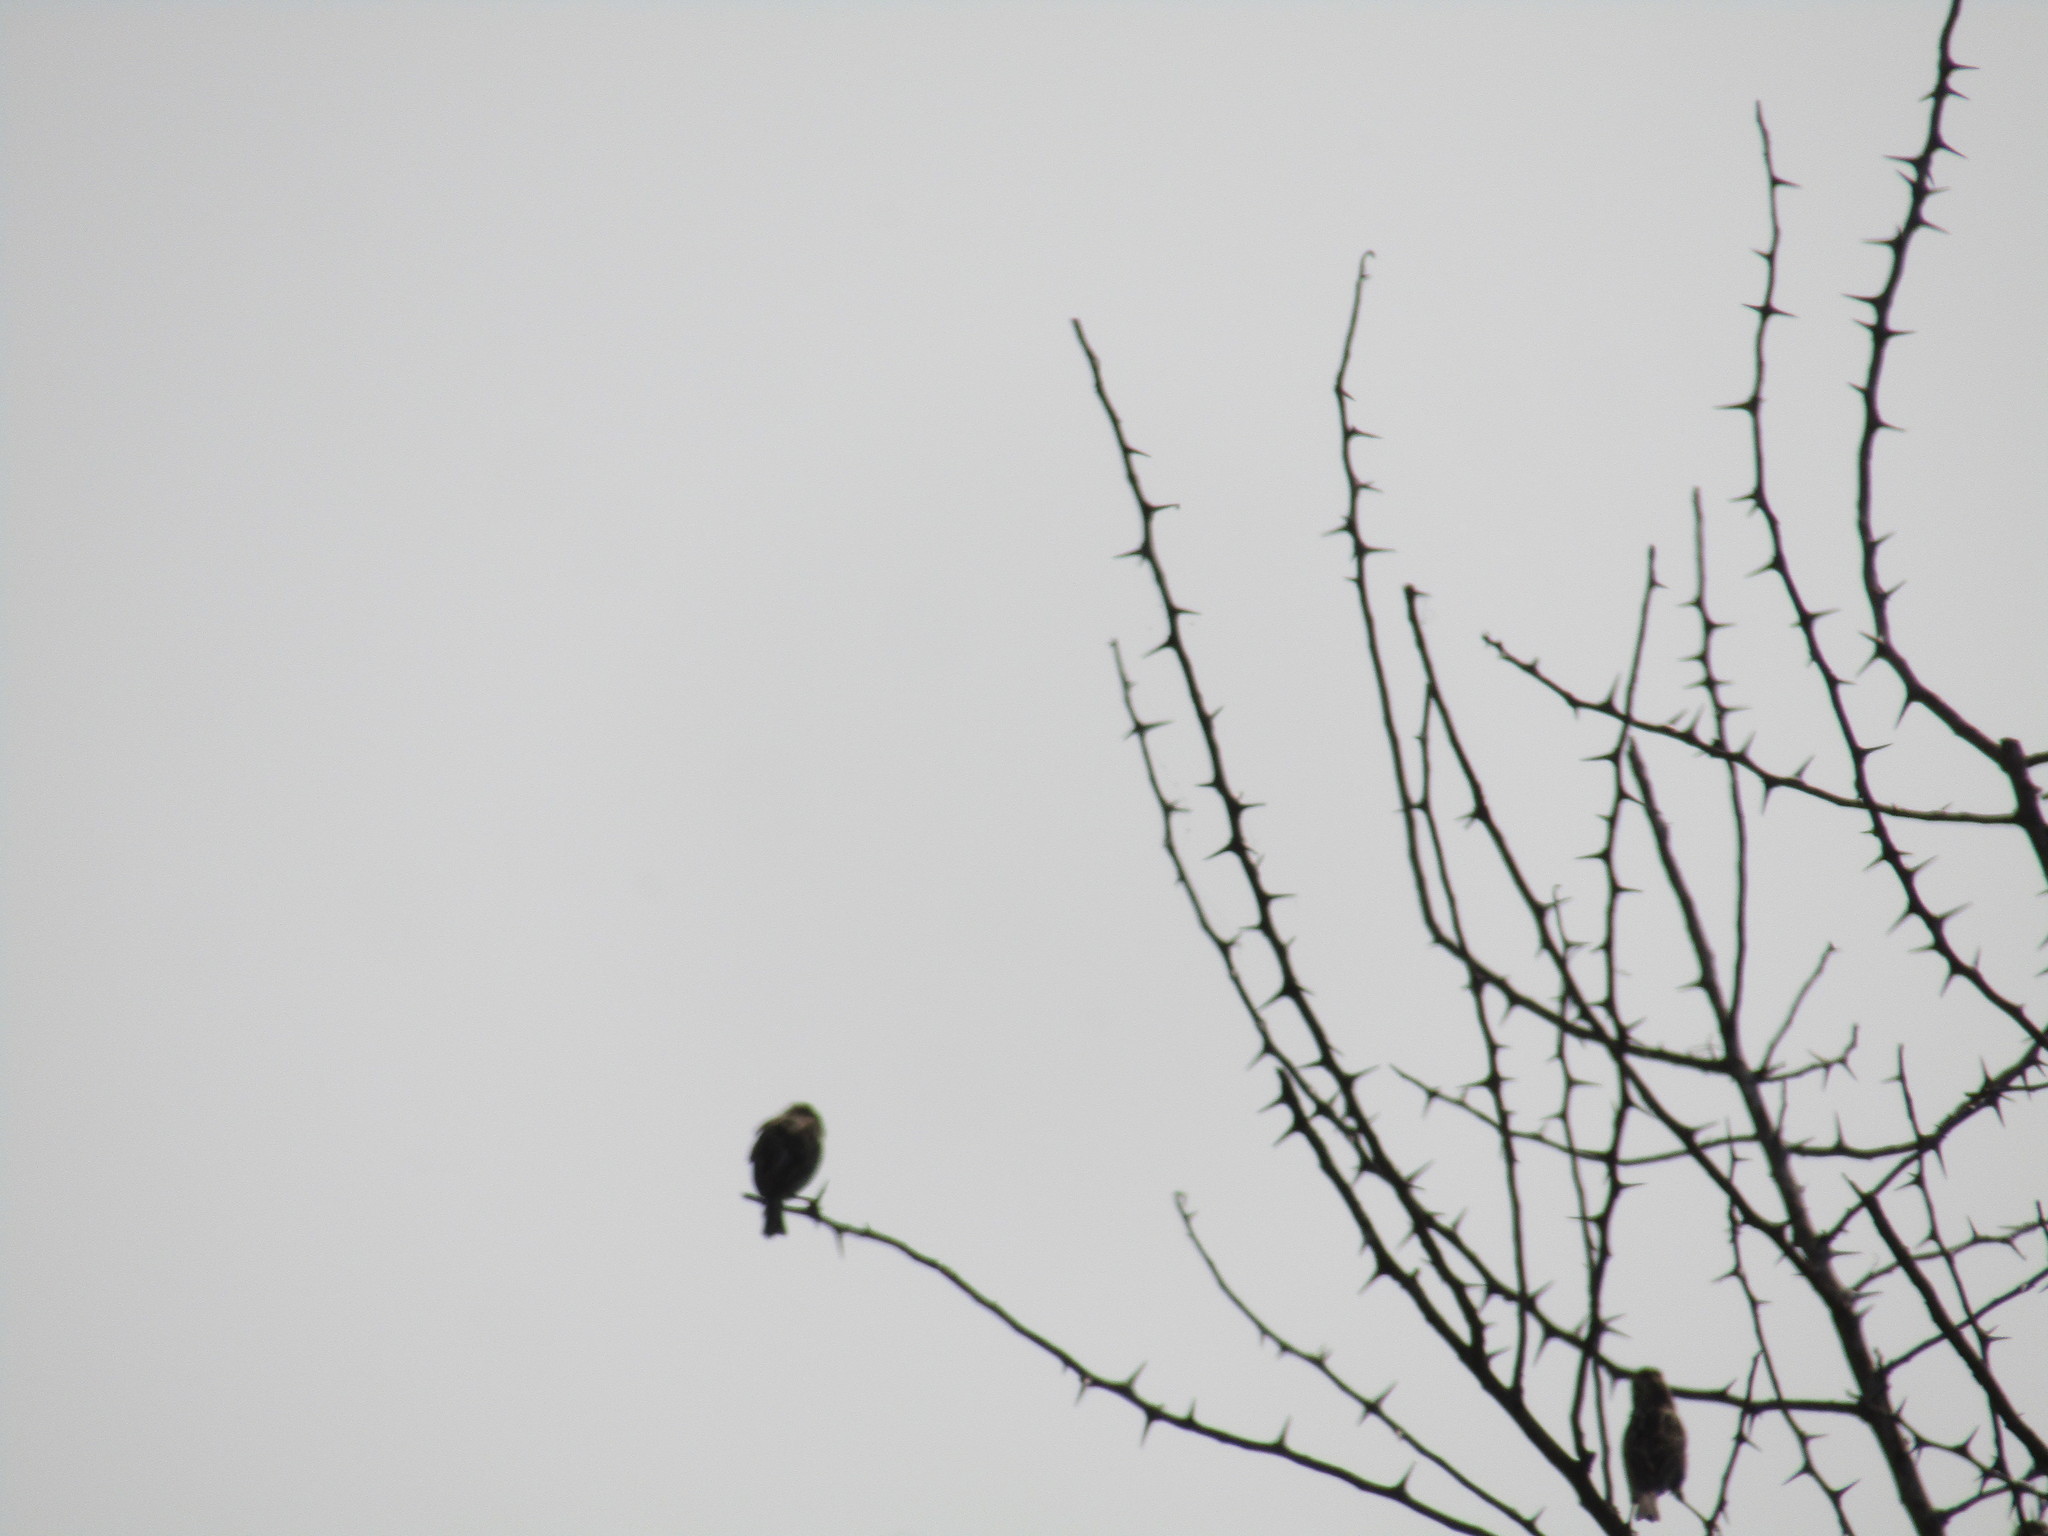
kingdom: Animalia
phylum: Chordata
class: Aves
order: Passeriformes
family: Passerellidae
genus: Passerculus
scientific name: Passerculus sandwichensis
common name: Savannah sparrow
